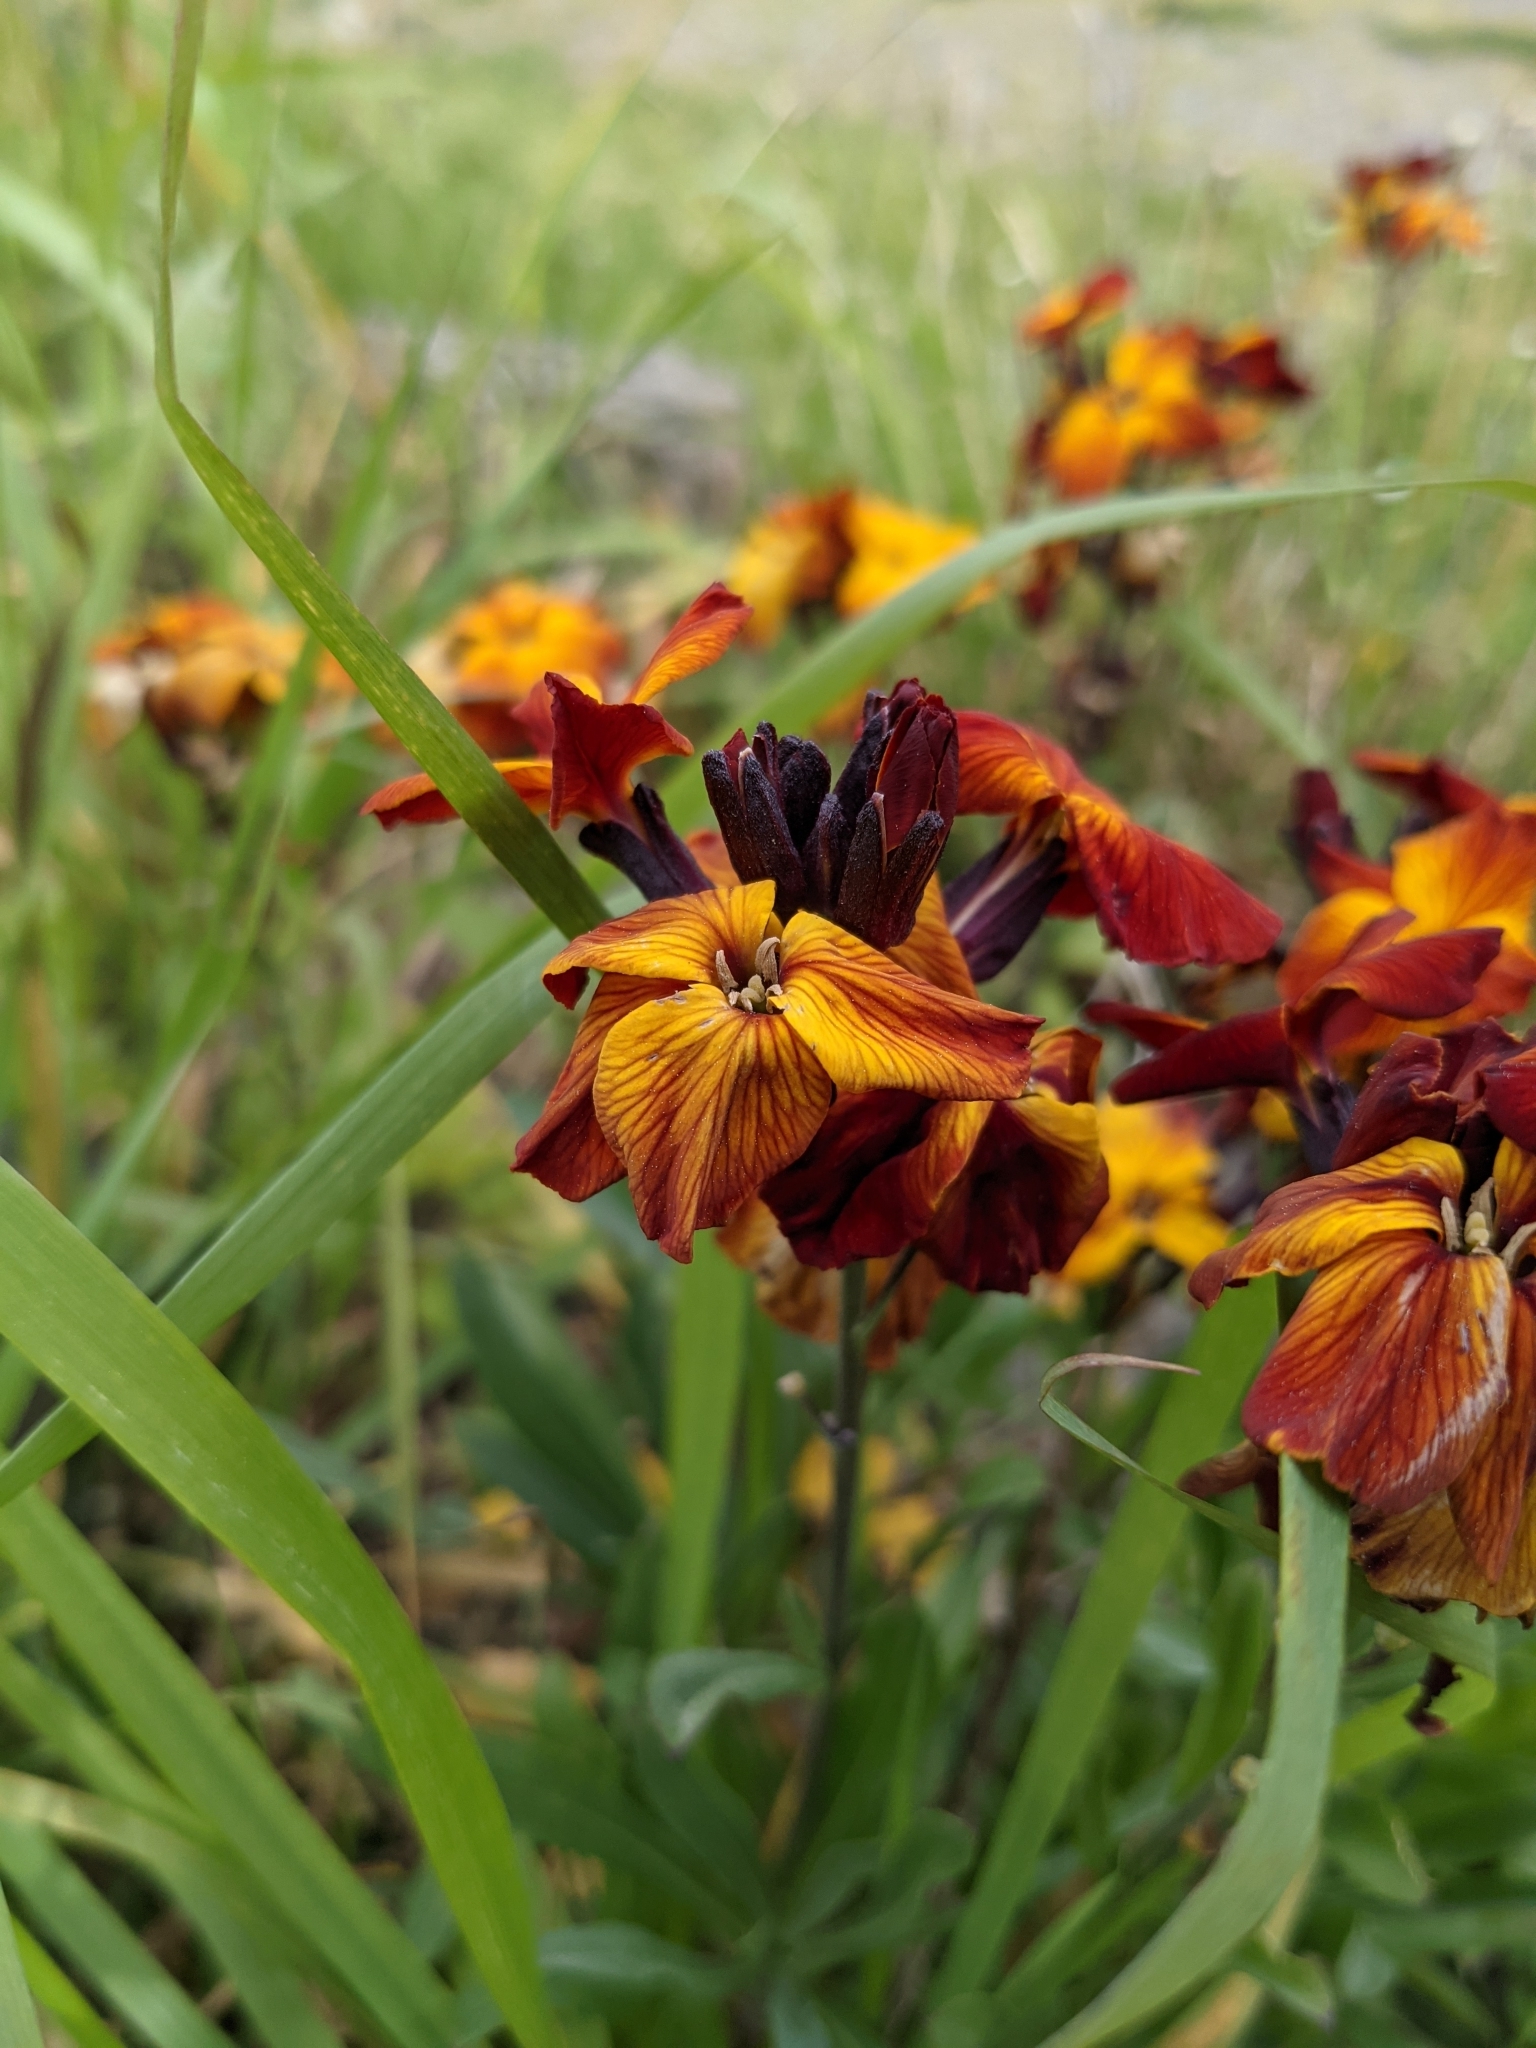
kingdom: Plantae
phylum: Tracheophyta
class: Magnoliopsida
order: Brassicales
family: Brassicaceae
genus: Erysimum
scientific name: Erysimum cheiri
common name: Wallflower
